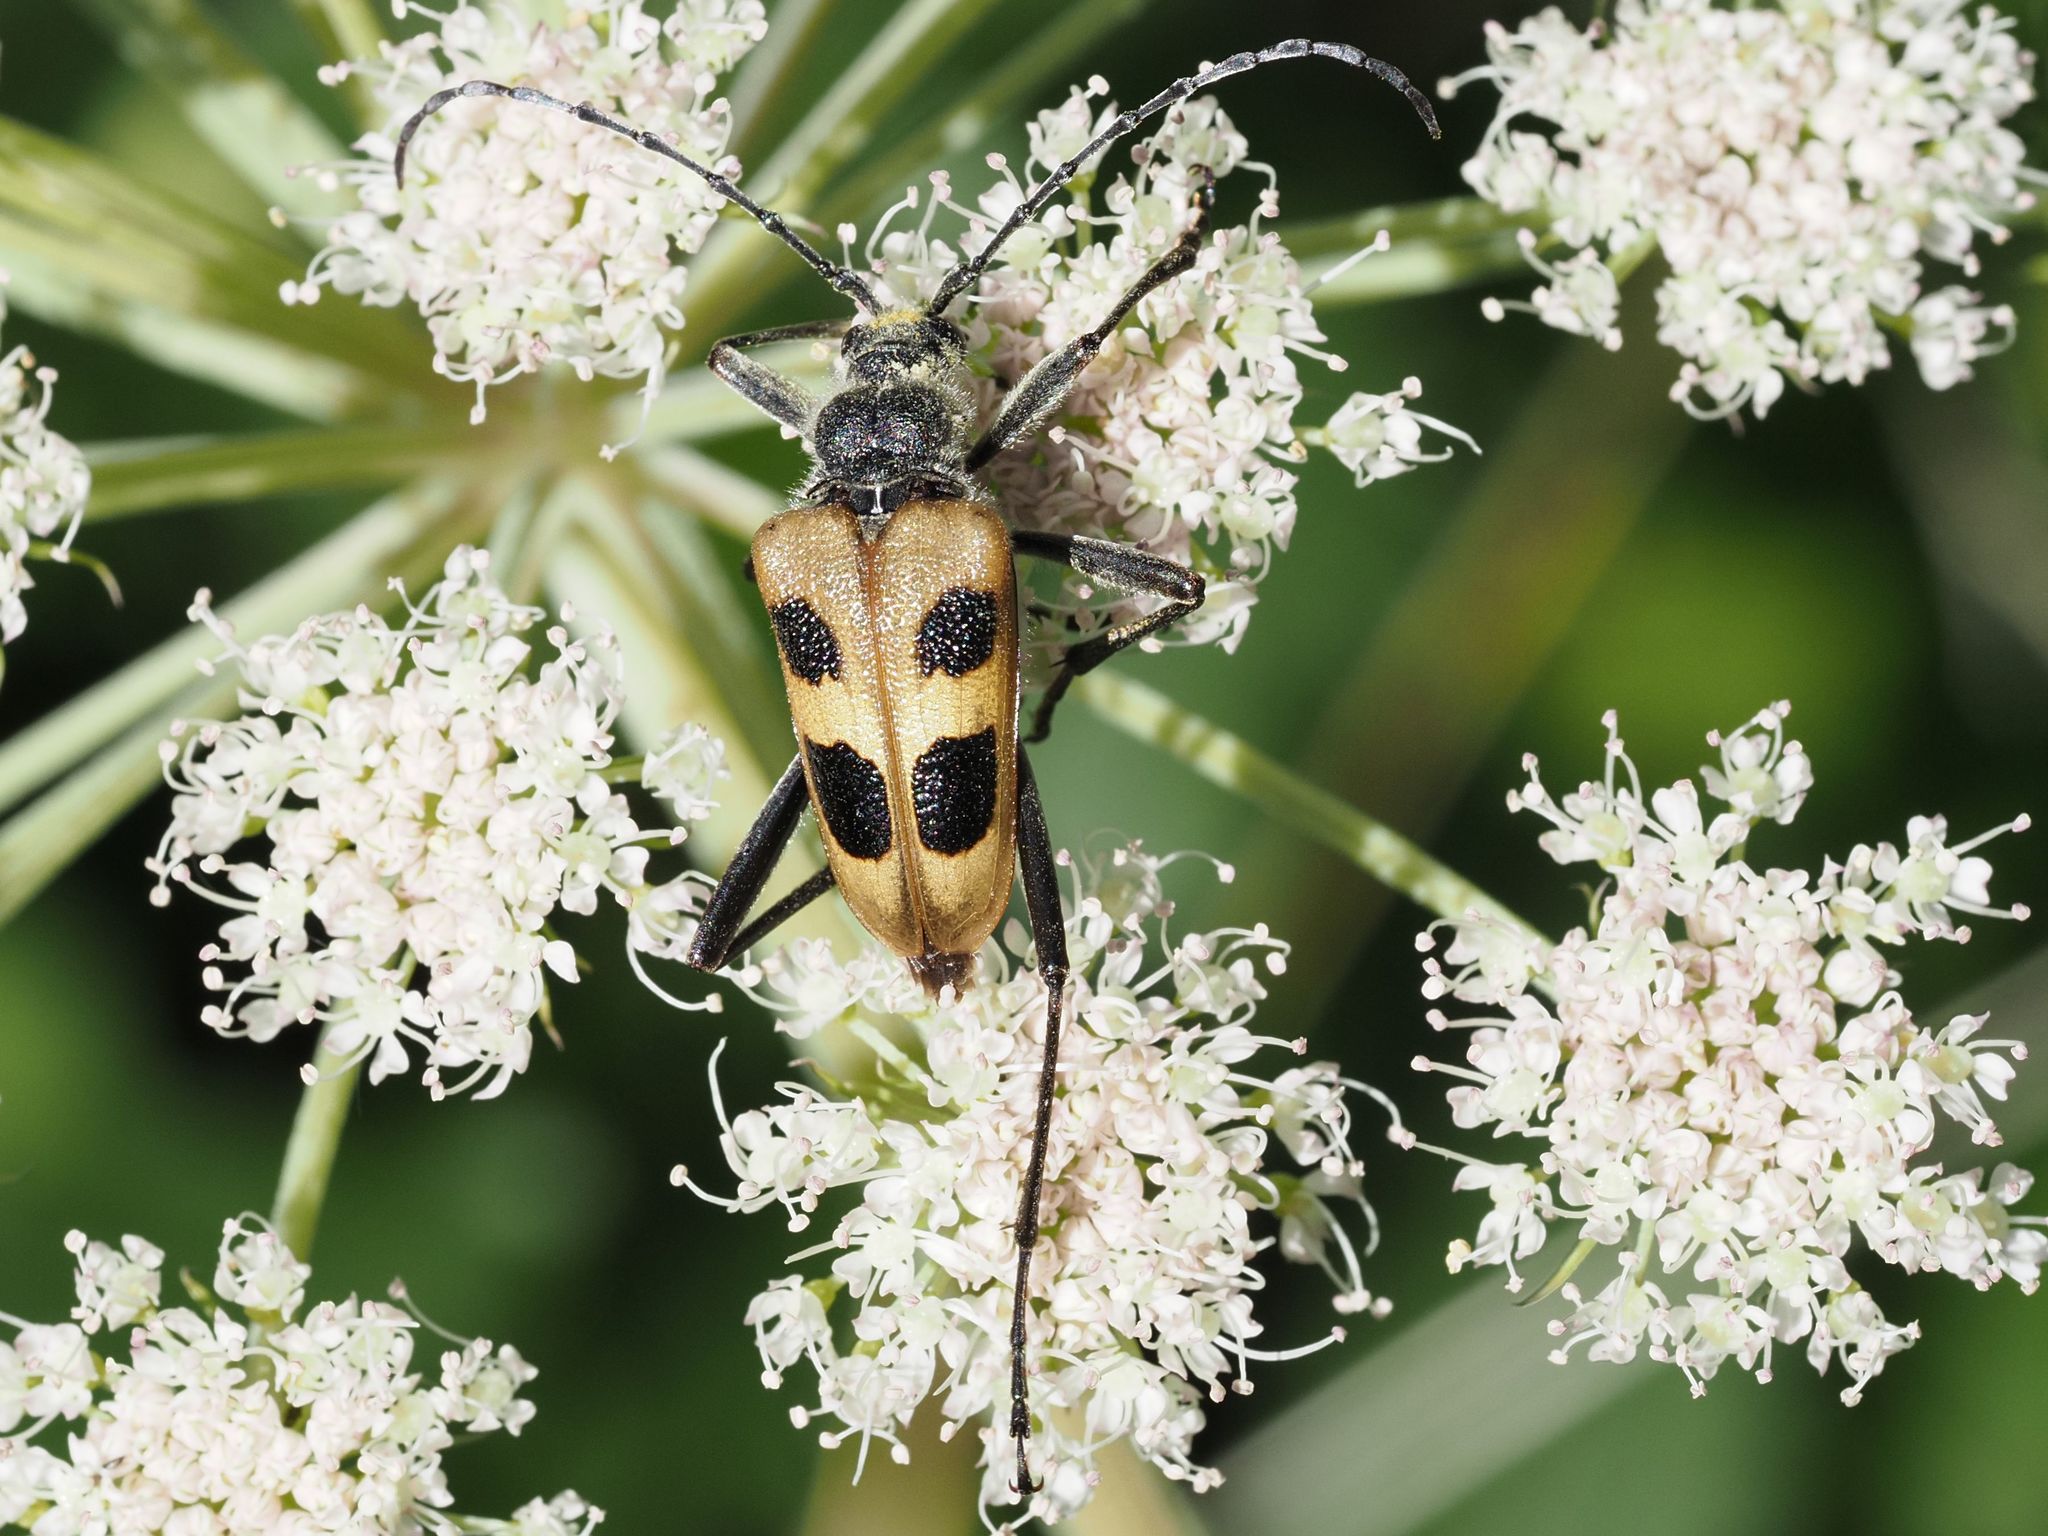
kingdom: Animalia
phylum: Arthropoda
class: Insecta
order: Coleoptera
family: Cerambycidae
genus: Pachyta
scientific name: Pachyta quadrimaculata
